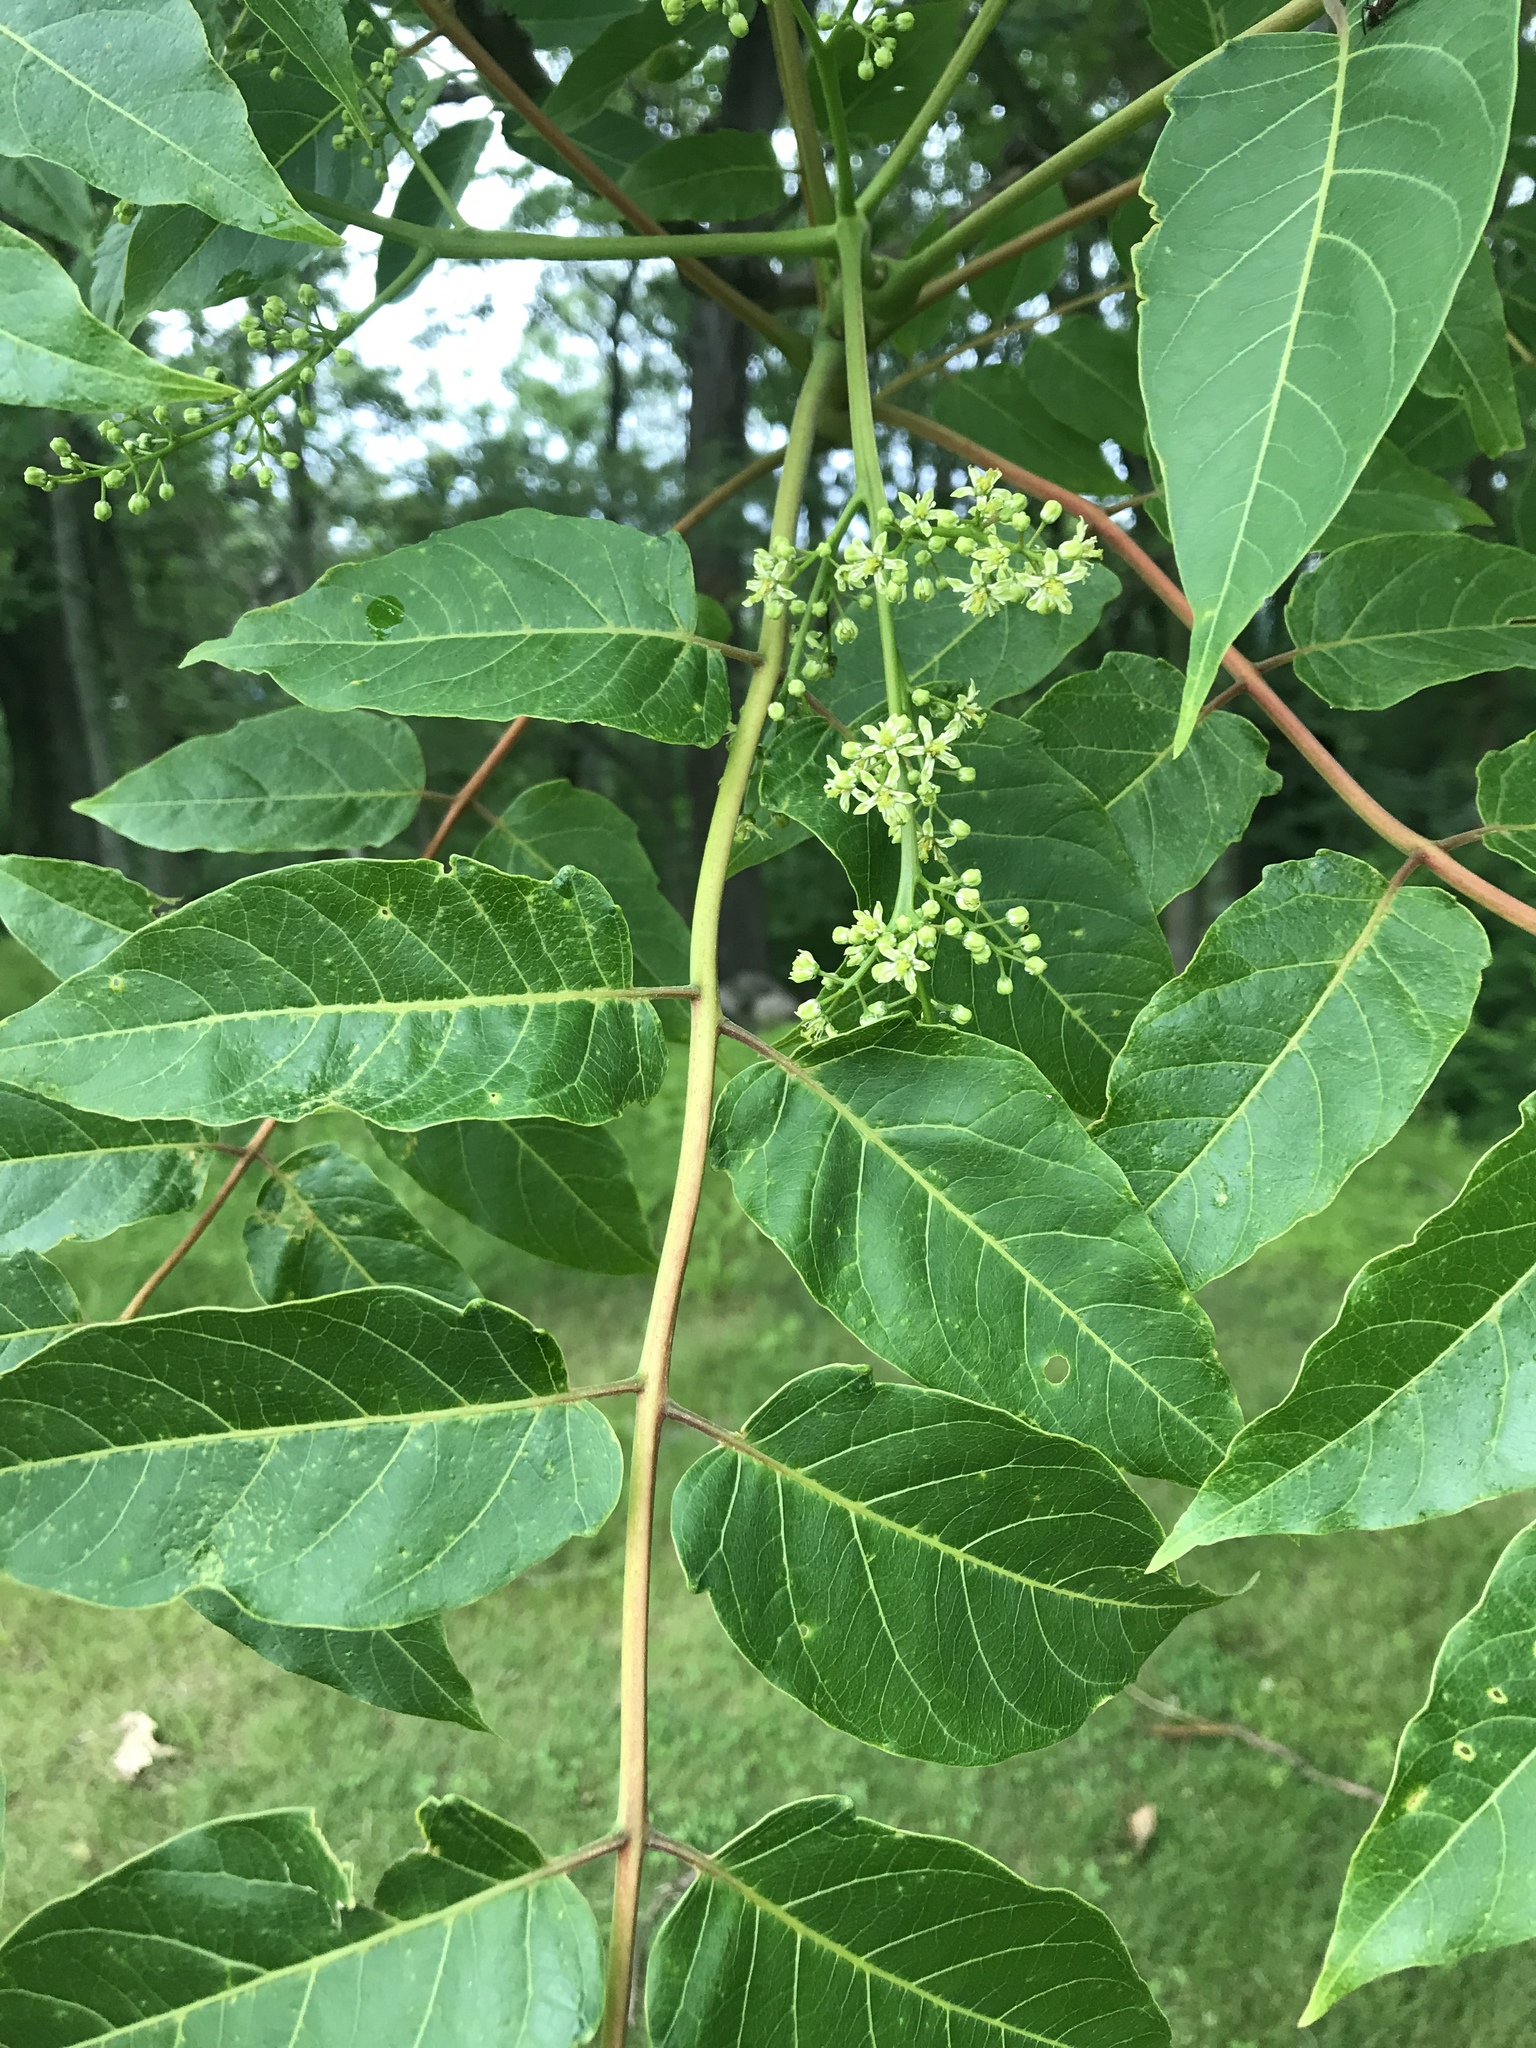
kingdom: Plantae
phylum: Tracheophyta
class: Magnoliopsida
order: Sapindales
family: Simaroubaceae
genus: Ailanthus
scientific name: Ailanthus altissima
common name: Tree-of-heaven
